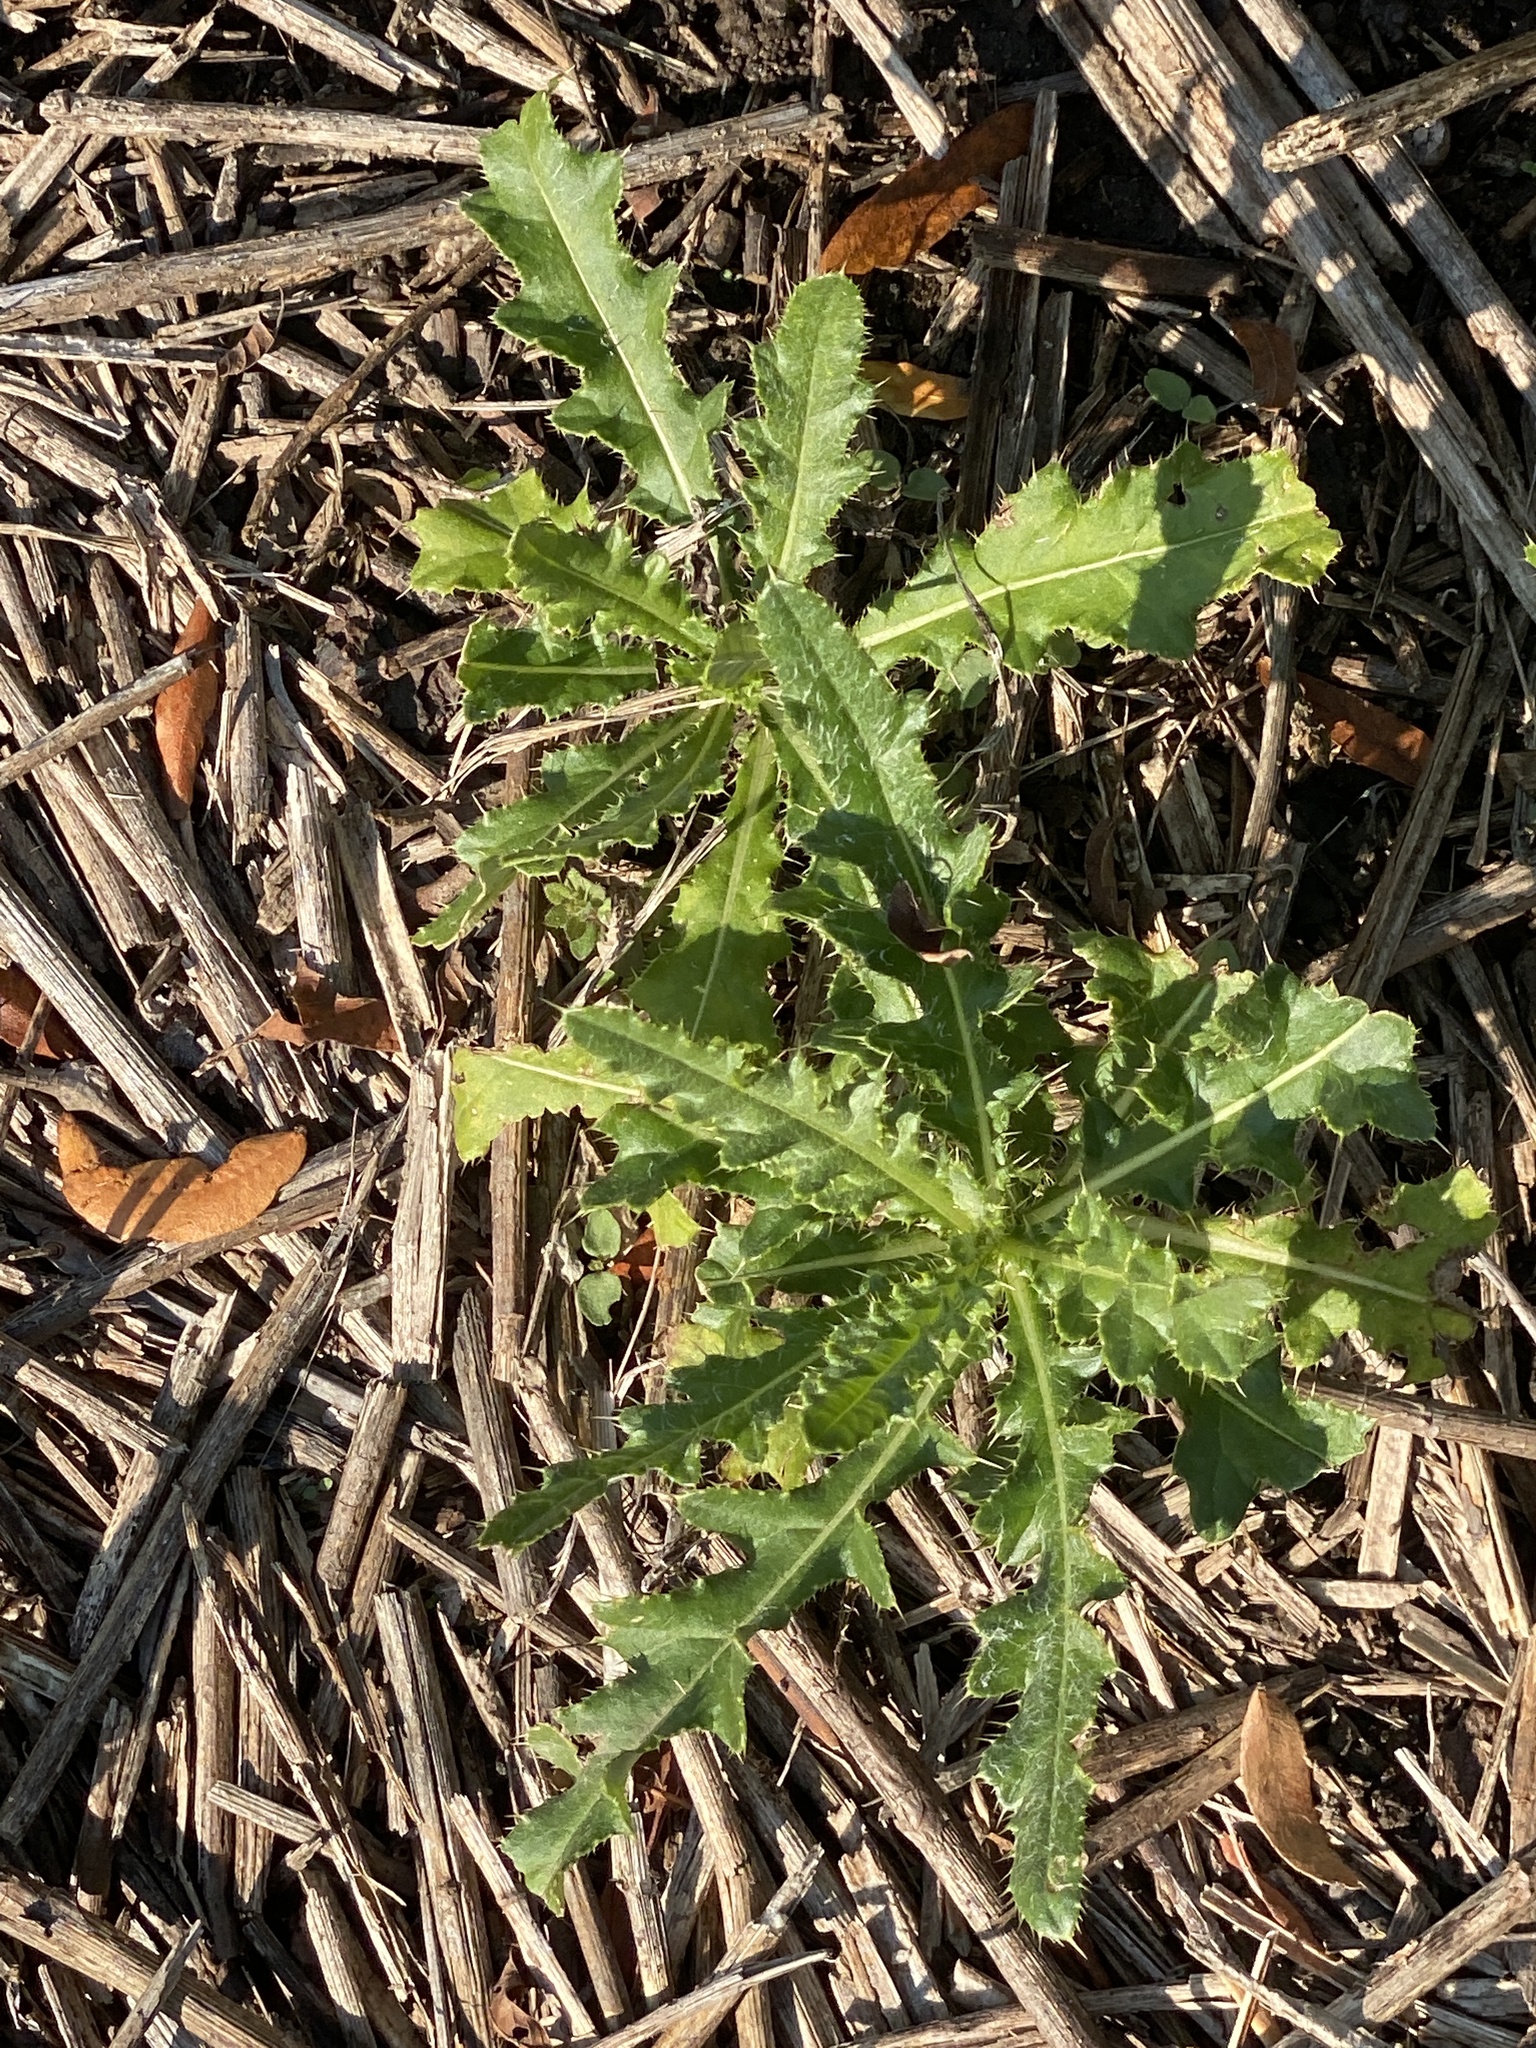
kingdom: Plantae
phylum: Tracheophyta
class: Magnoliopsida
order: Asterales
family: Asteraceae
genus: Cirsium
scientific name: Cirsium arvense
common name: Creeping thistle
